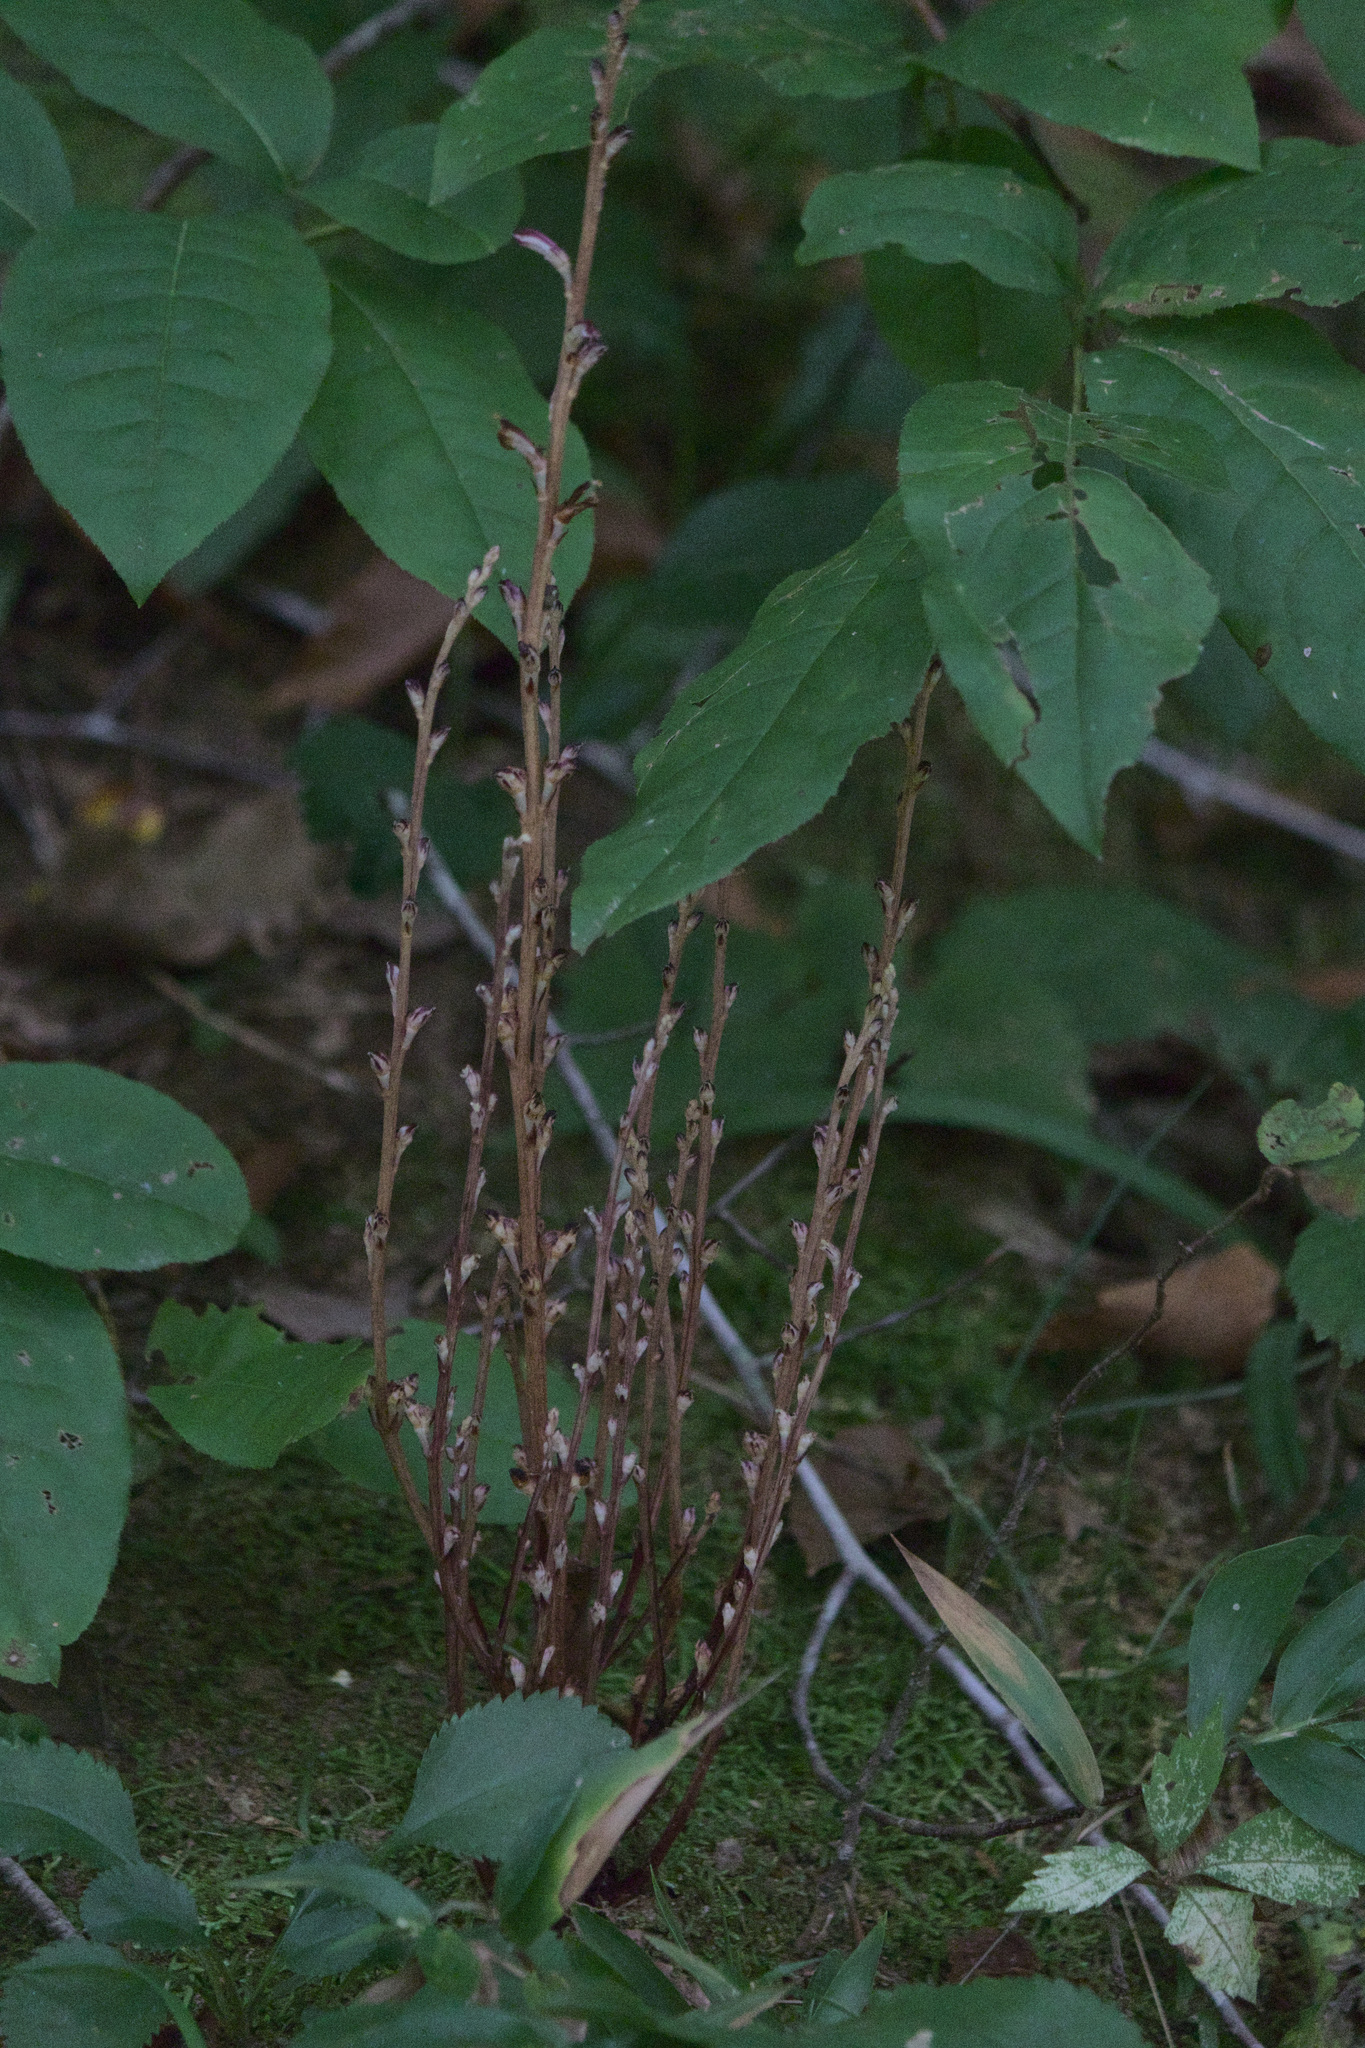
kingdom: Plantae
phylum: Tracheophyta
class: Magnoliopsida
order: Lamiales
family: Orobanchaceae
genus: Epifagus
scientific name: Epifagus virginiana
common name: Beechdrops
